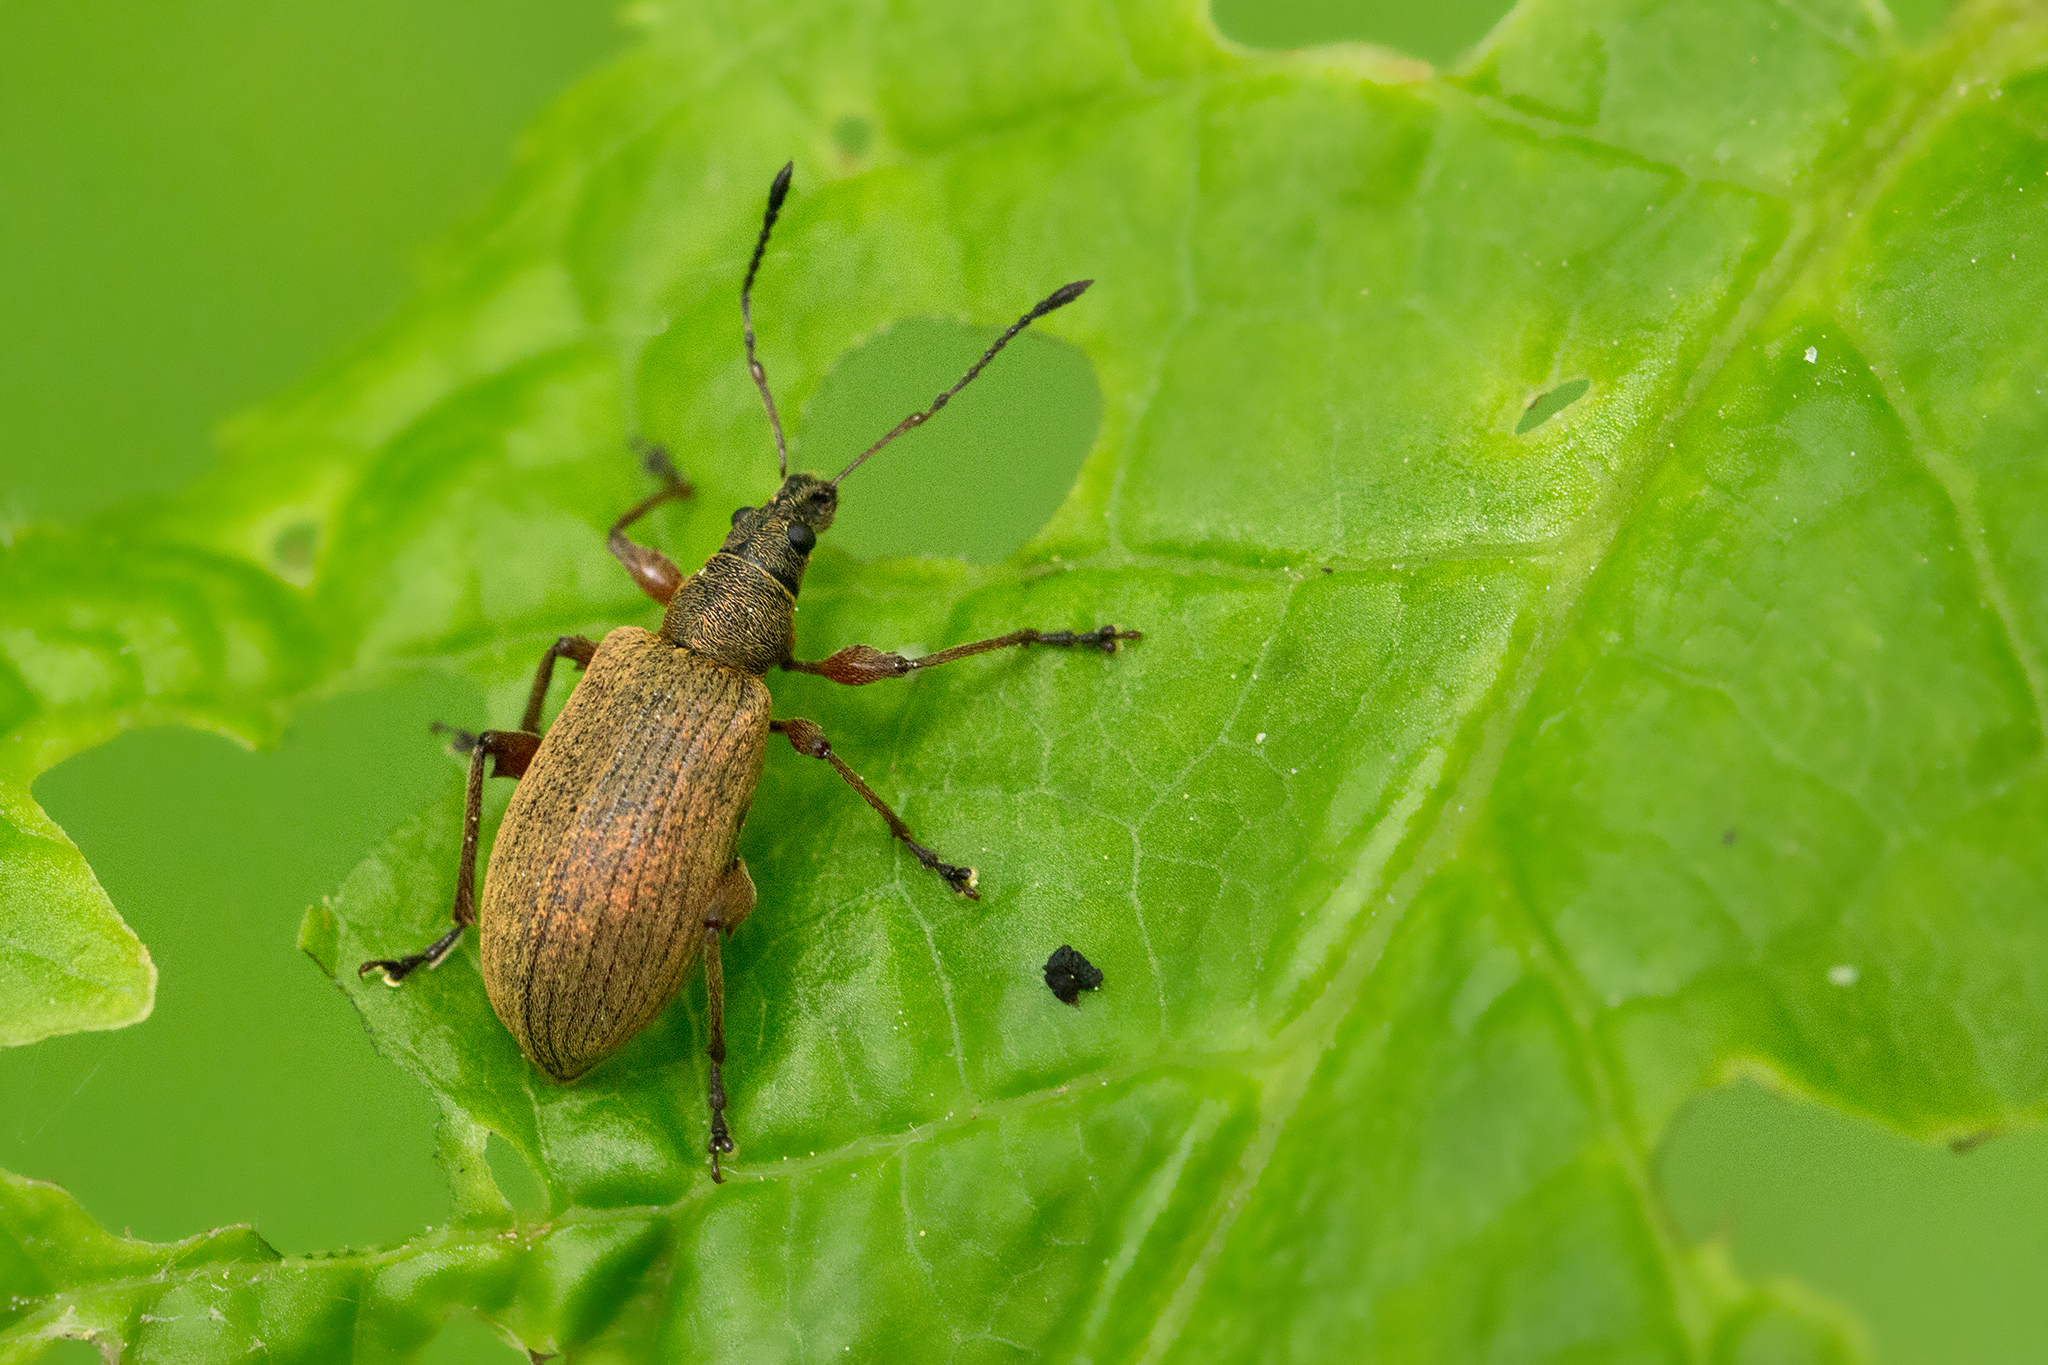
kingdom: Animalia
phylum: Arthropoda
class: Insecta
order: Coleoptera
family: Curculionidae
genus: Phyllobius
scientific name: Phyllobius glaucus
